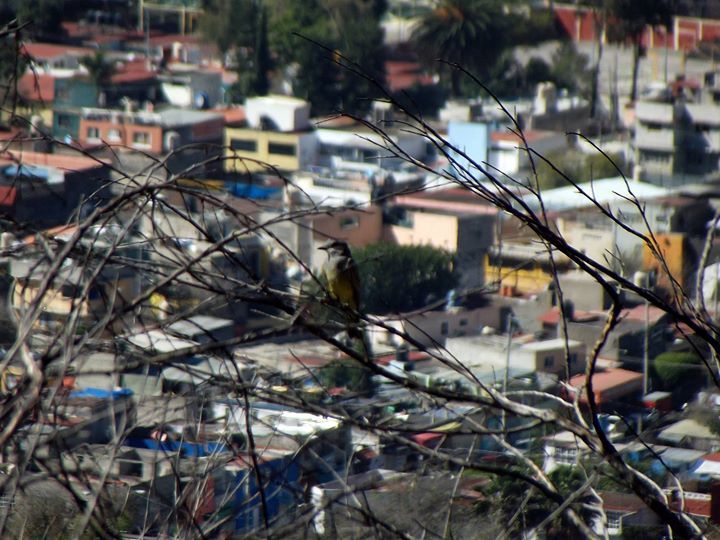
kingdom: Animalia
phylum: Chordata
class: Aves
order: Passeriformes
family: Tyrannidae
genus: Tyrannus
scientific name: Tyrannus vociferans
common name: Cassin's kingbird
